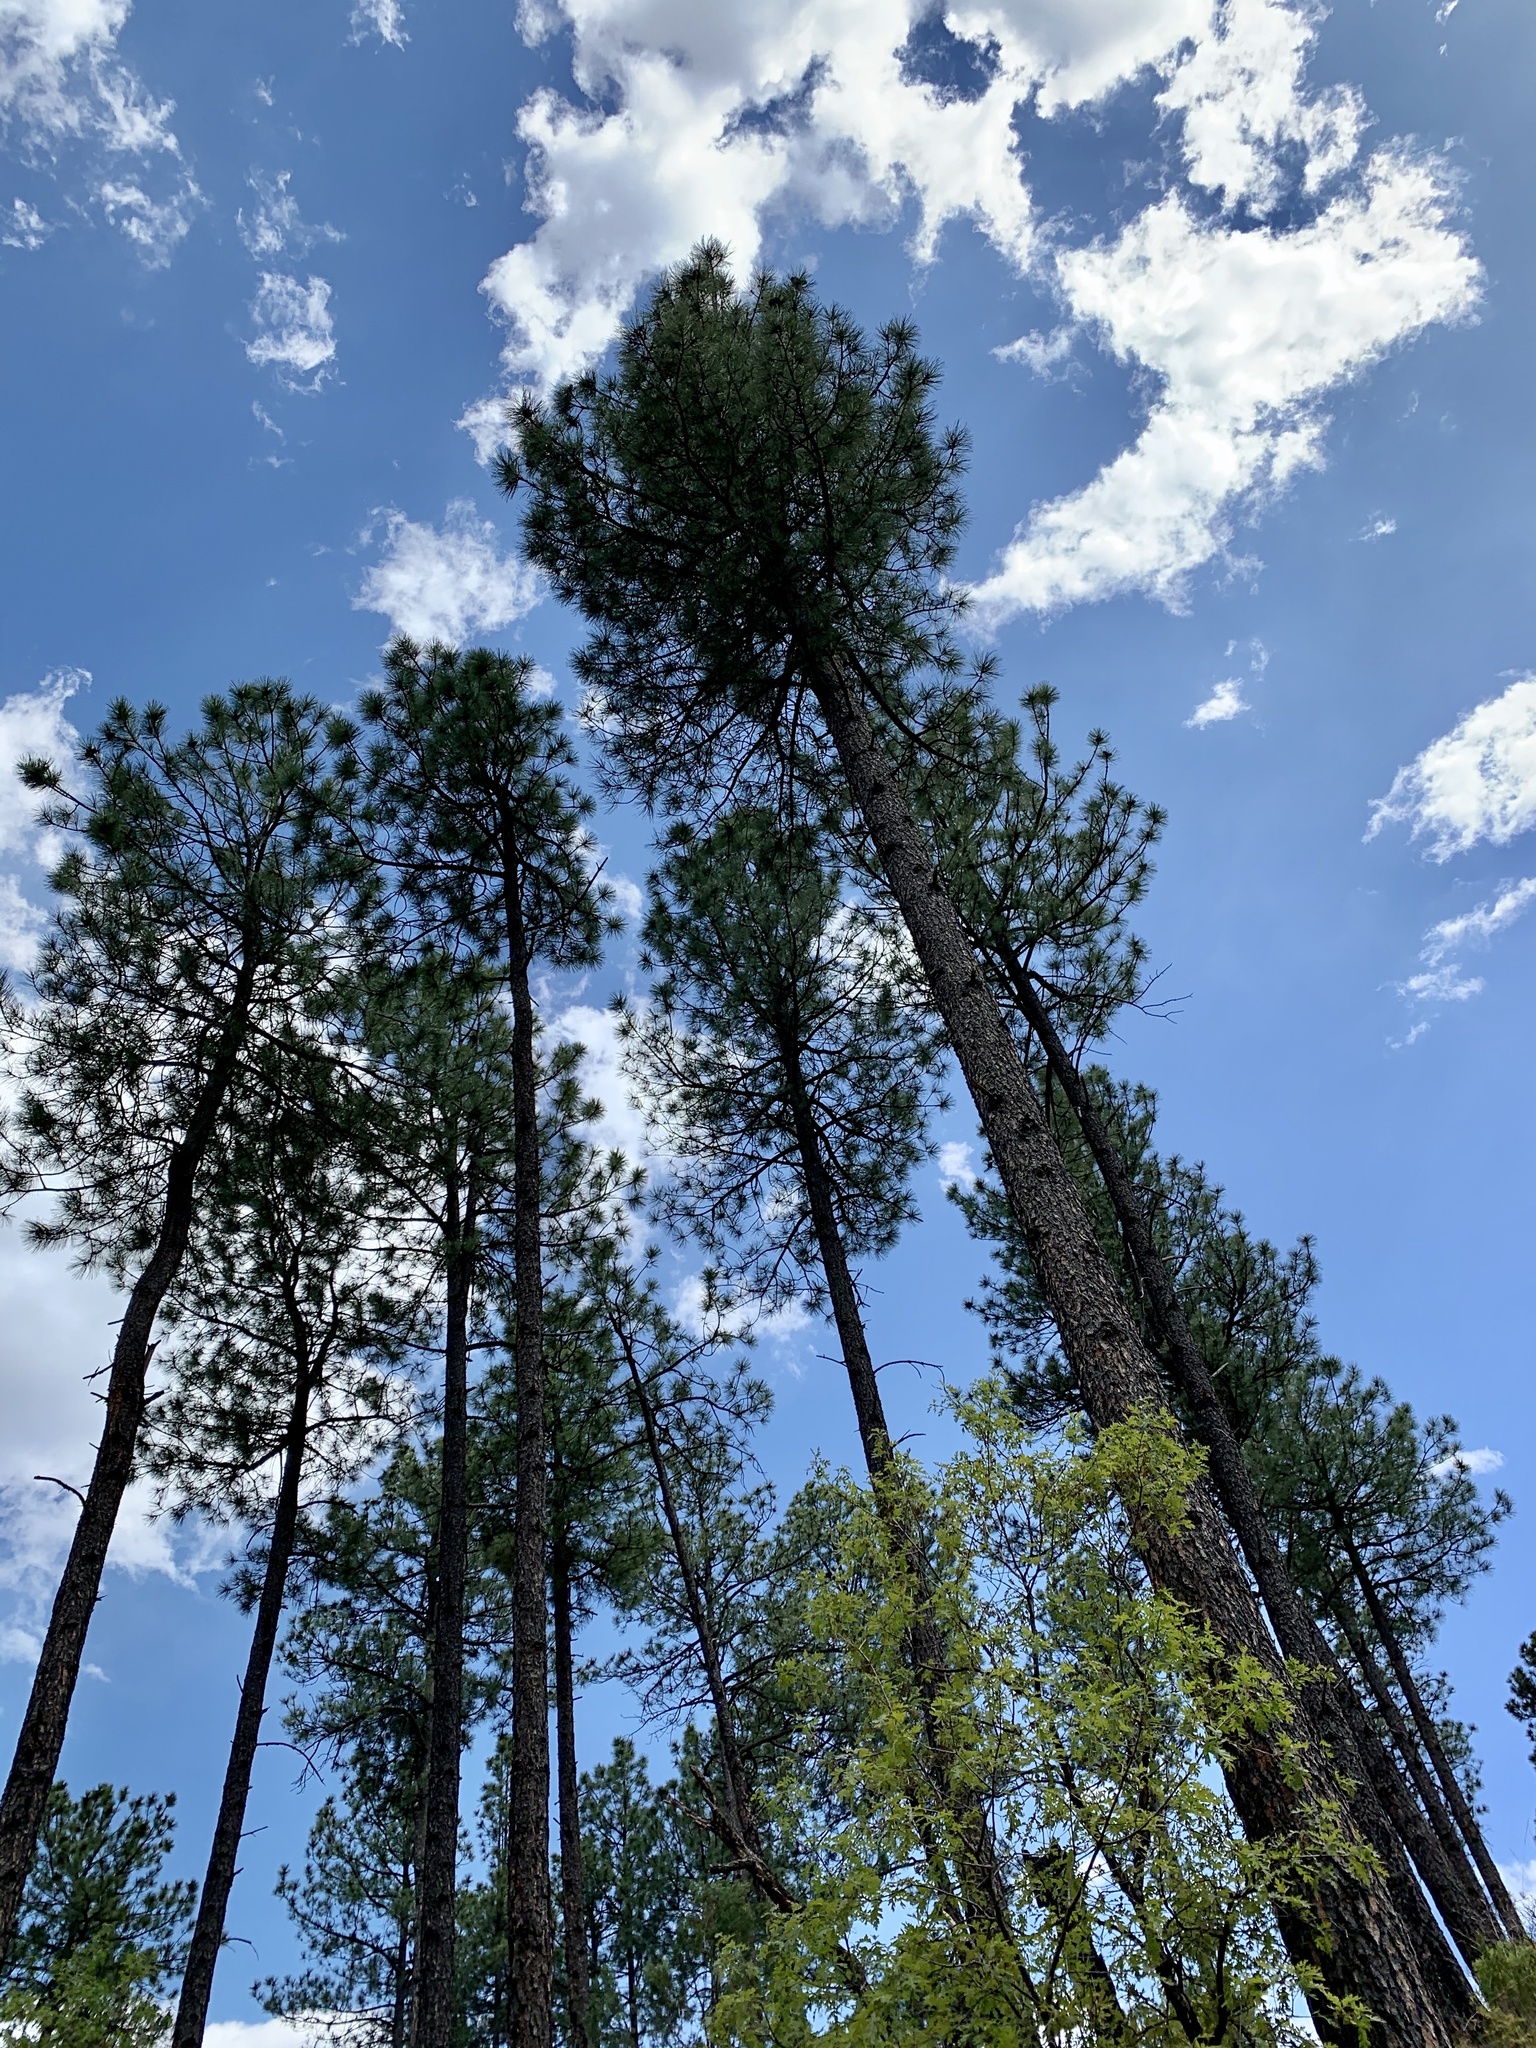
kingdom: Plantae
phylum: Tracheophyta
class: Pinopsida
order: Pinales
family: Pinaceae
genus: Pinus
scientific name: Pinus ponderosa
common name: Western yellow-pine
